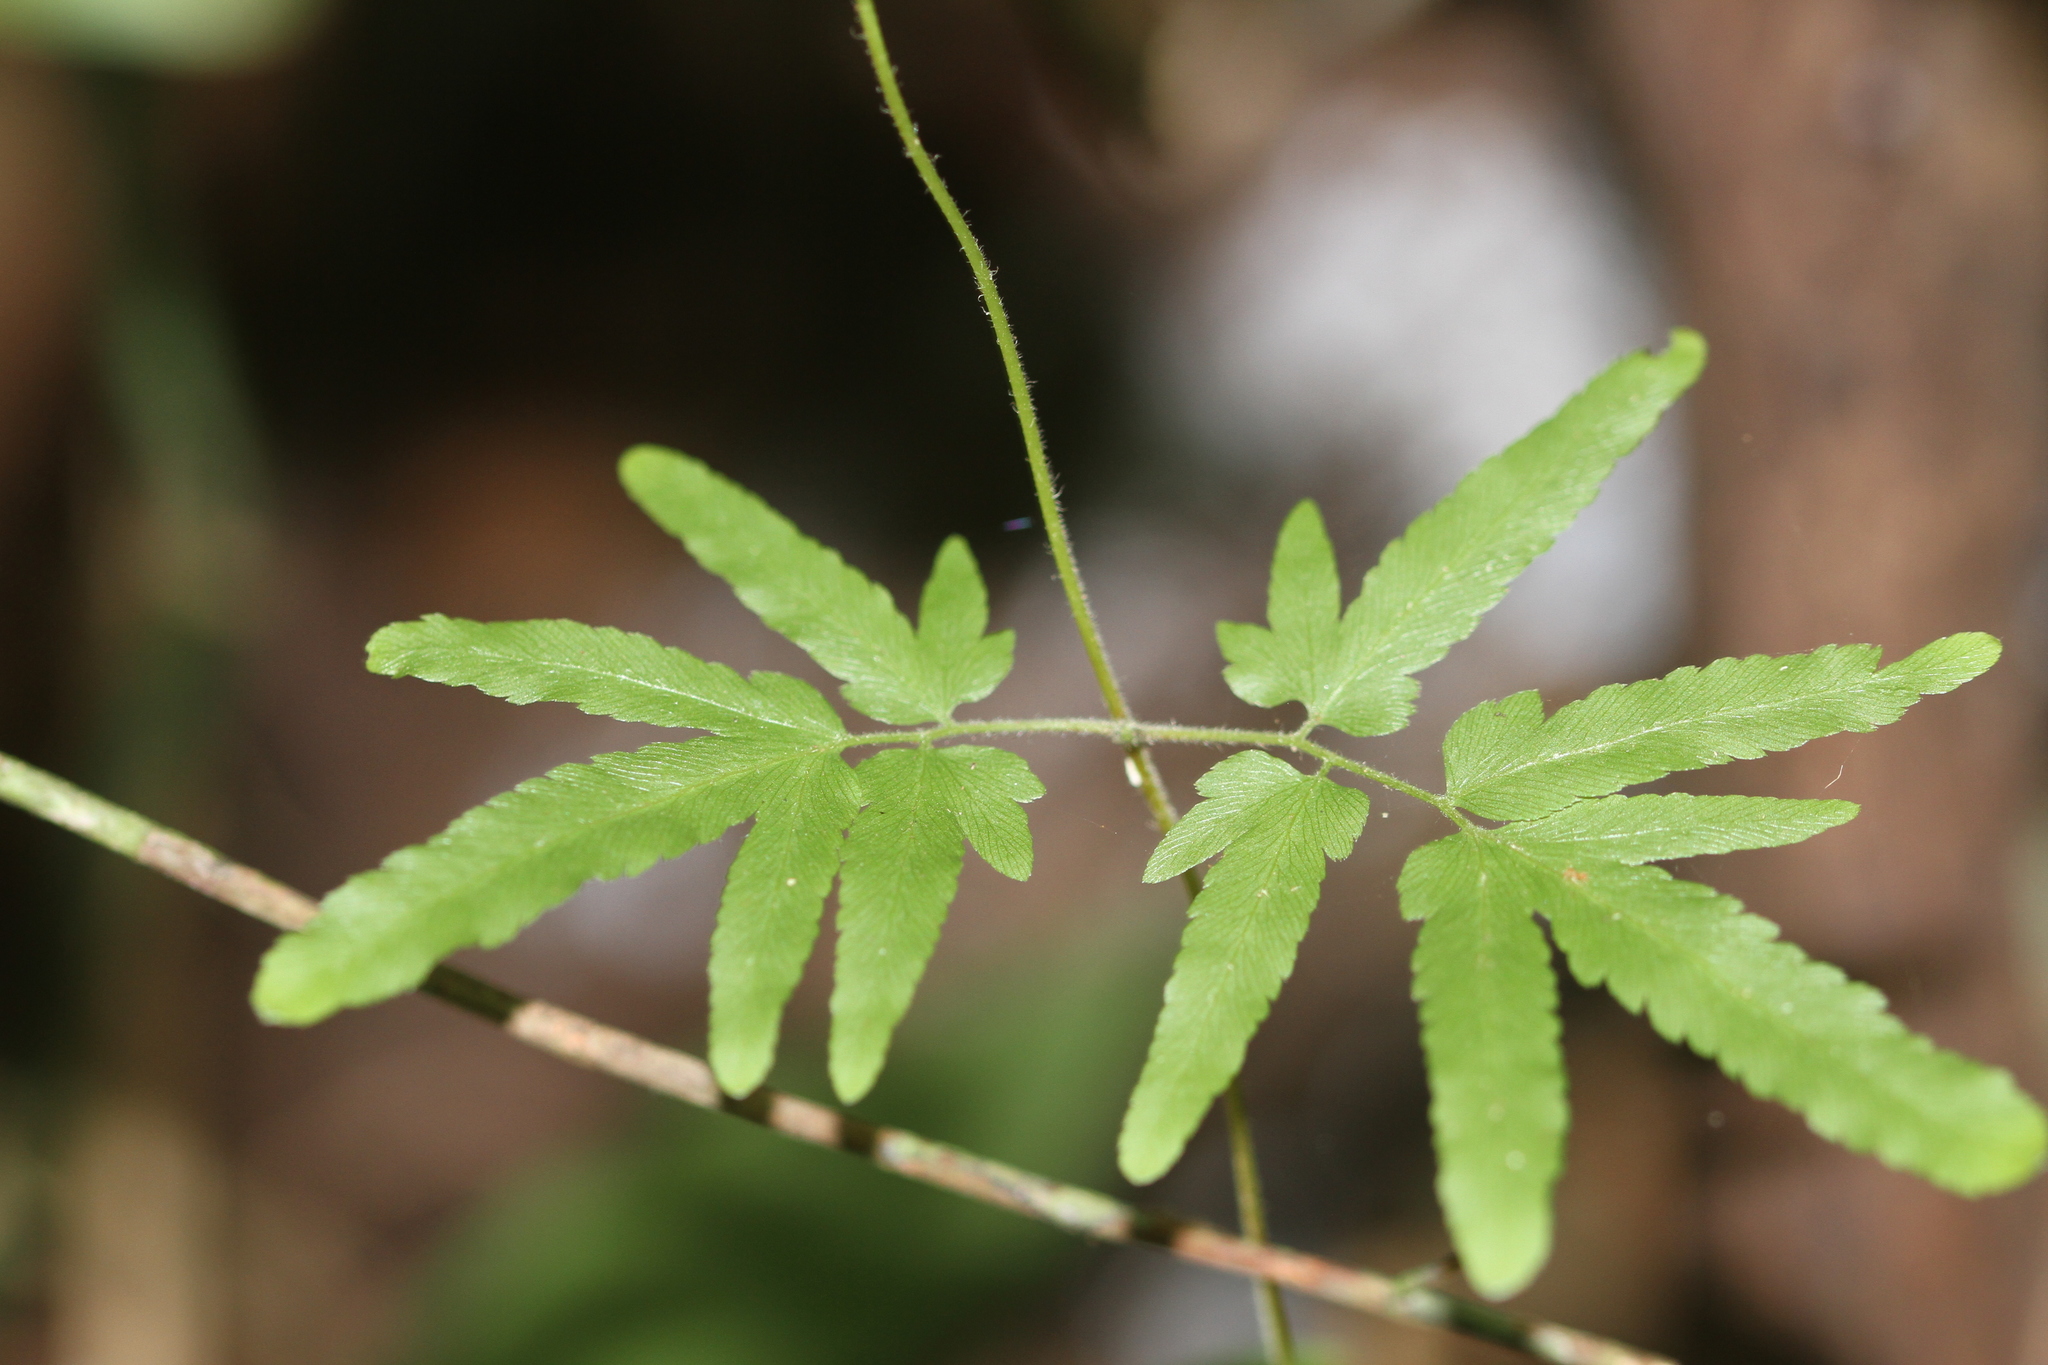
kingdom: Plantae
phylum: Tracheophyta
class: Polypodiopsida
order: Schizaeales
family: Lygodiaceae
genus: Lygodium
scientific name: Lygodium venustum
